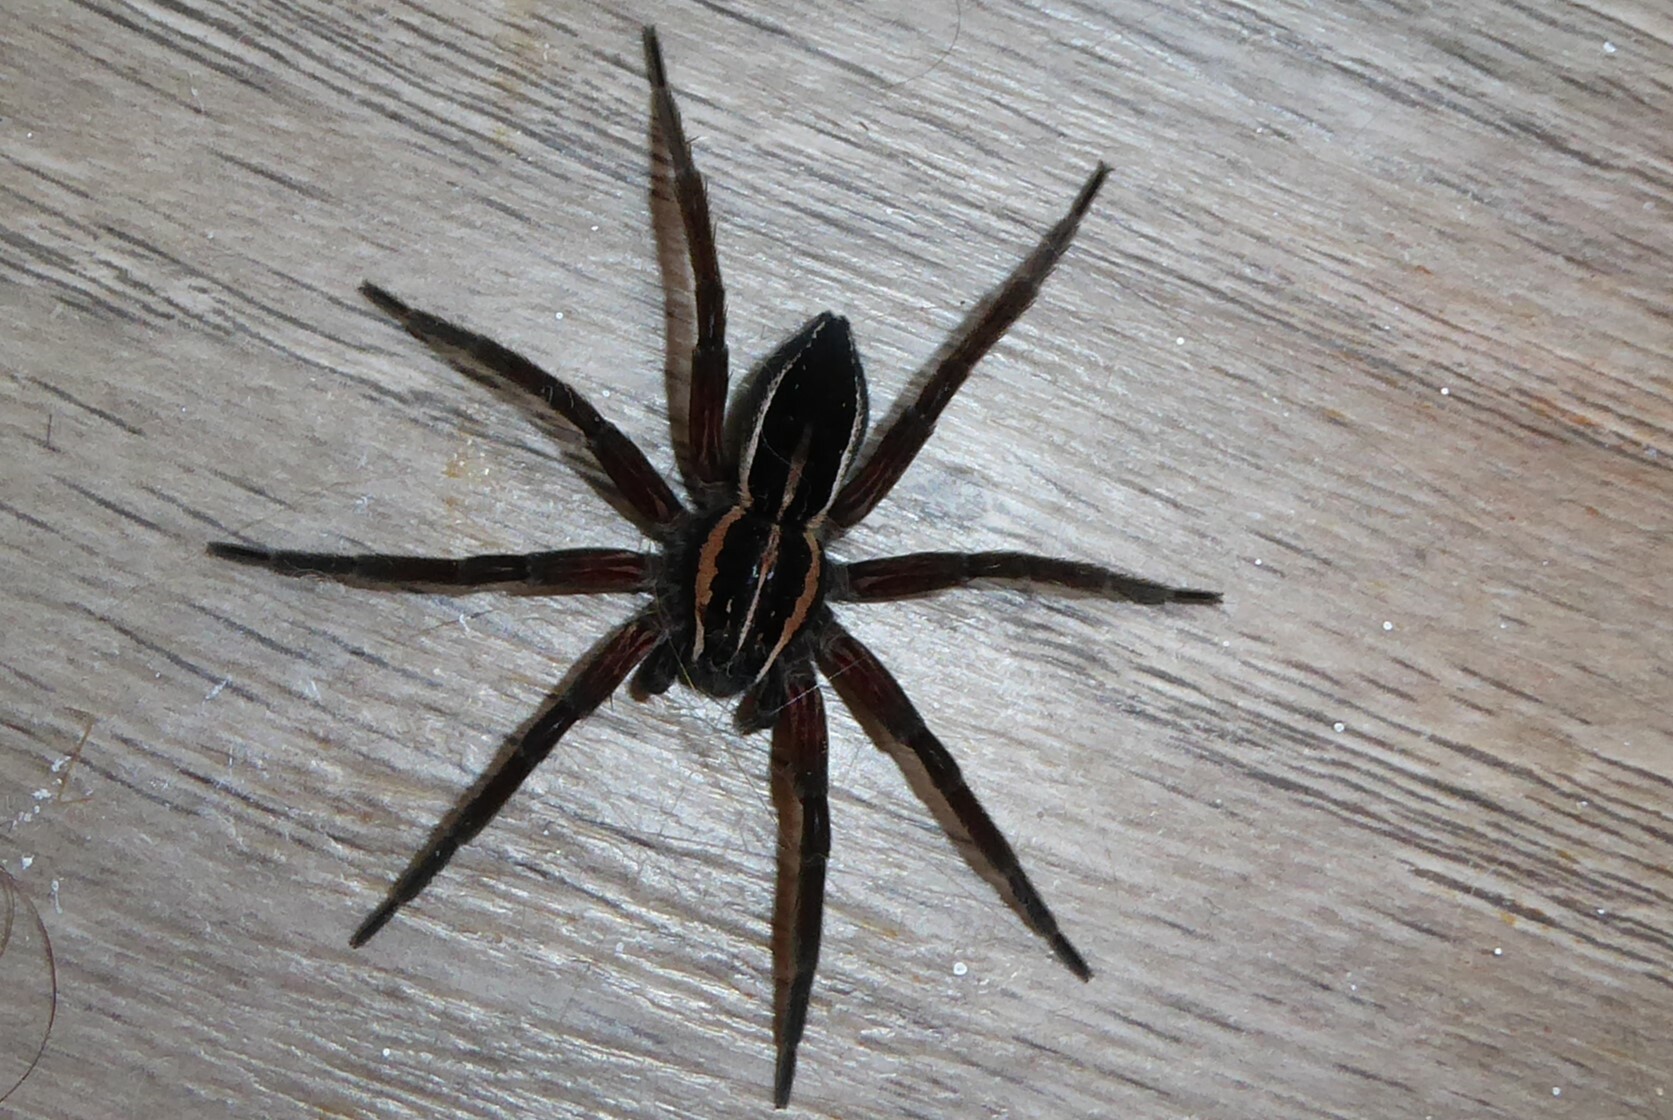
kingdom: Animalia
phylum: Arthropoda
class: Arachnida
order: Araneae
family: Pisauridae
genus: Dolomedes
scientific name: Dolomedes minor
